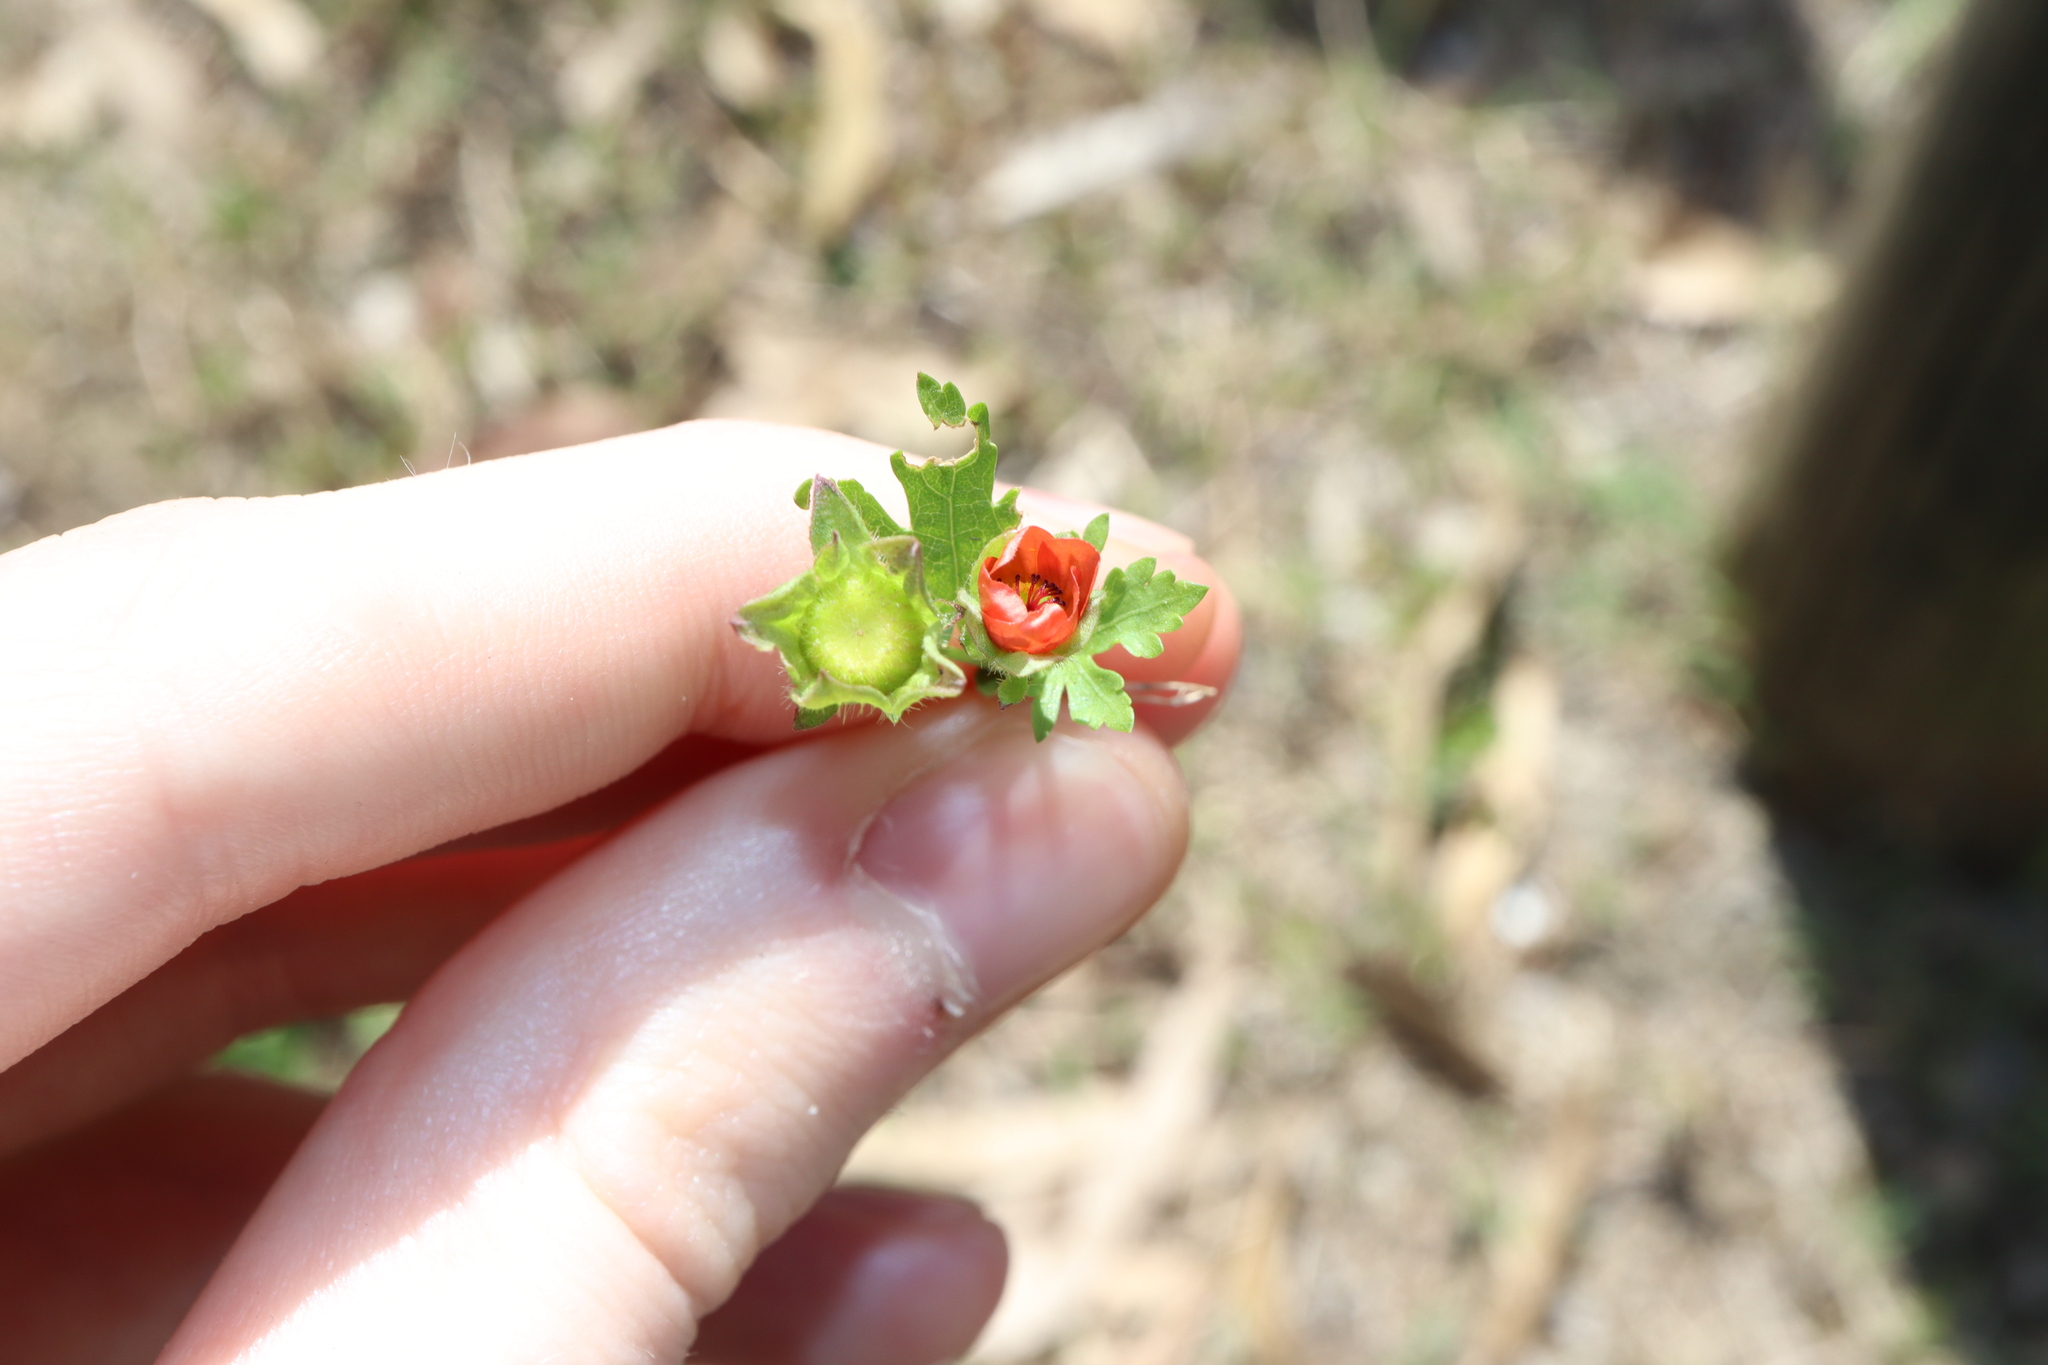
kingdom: Plantae
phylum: Tracheophyta
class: Magnoliopsida
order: Malvales
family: Malvaceae
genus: Modiola
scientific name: Modiola caroliniana
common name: Carolina bristlemallow
